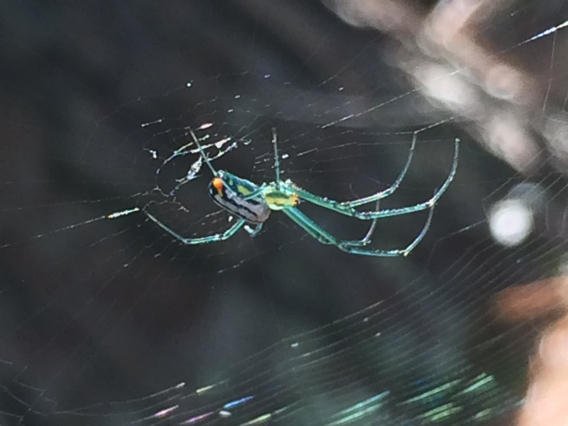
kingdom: Animalia
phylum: Arthropoda
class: Arachnida
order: Araneae
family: Tetragnathidae
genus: Leucauge
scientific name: Leucauge argyrobapta
